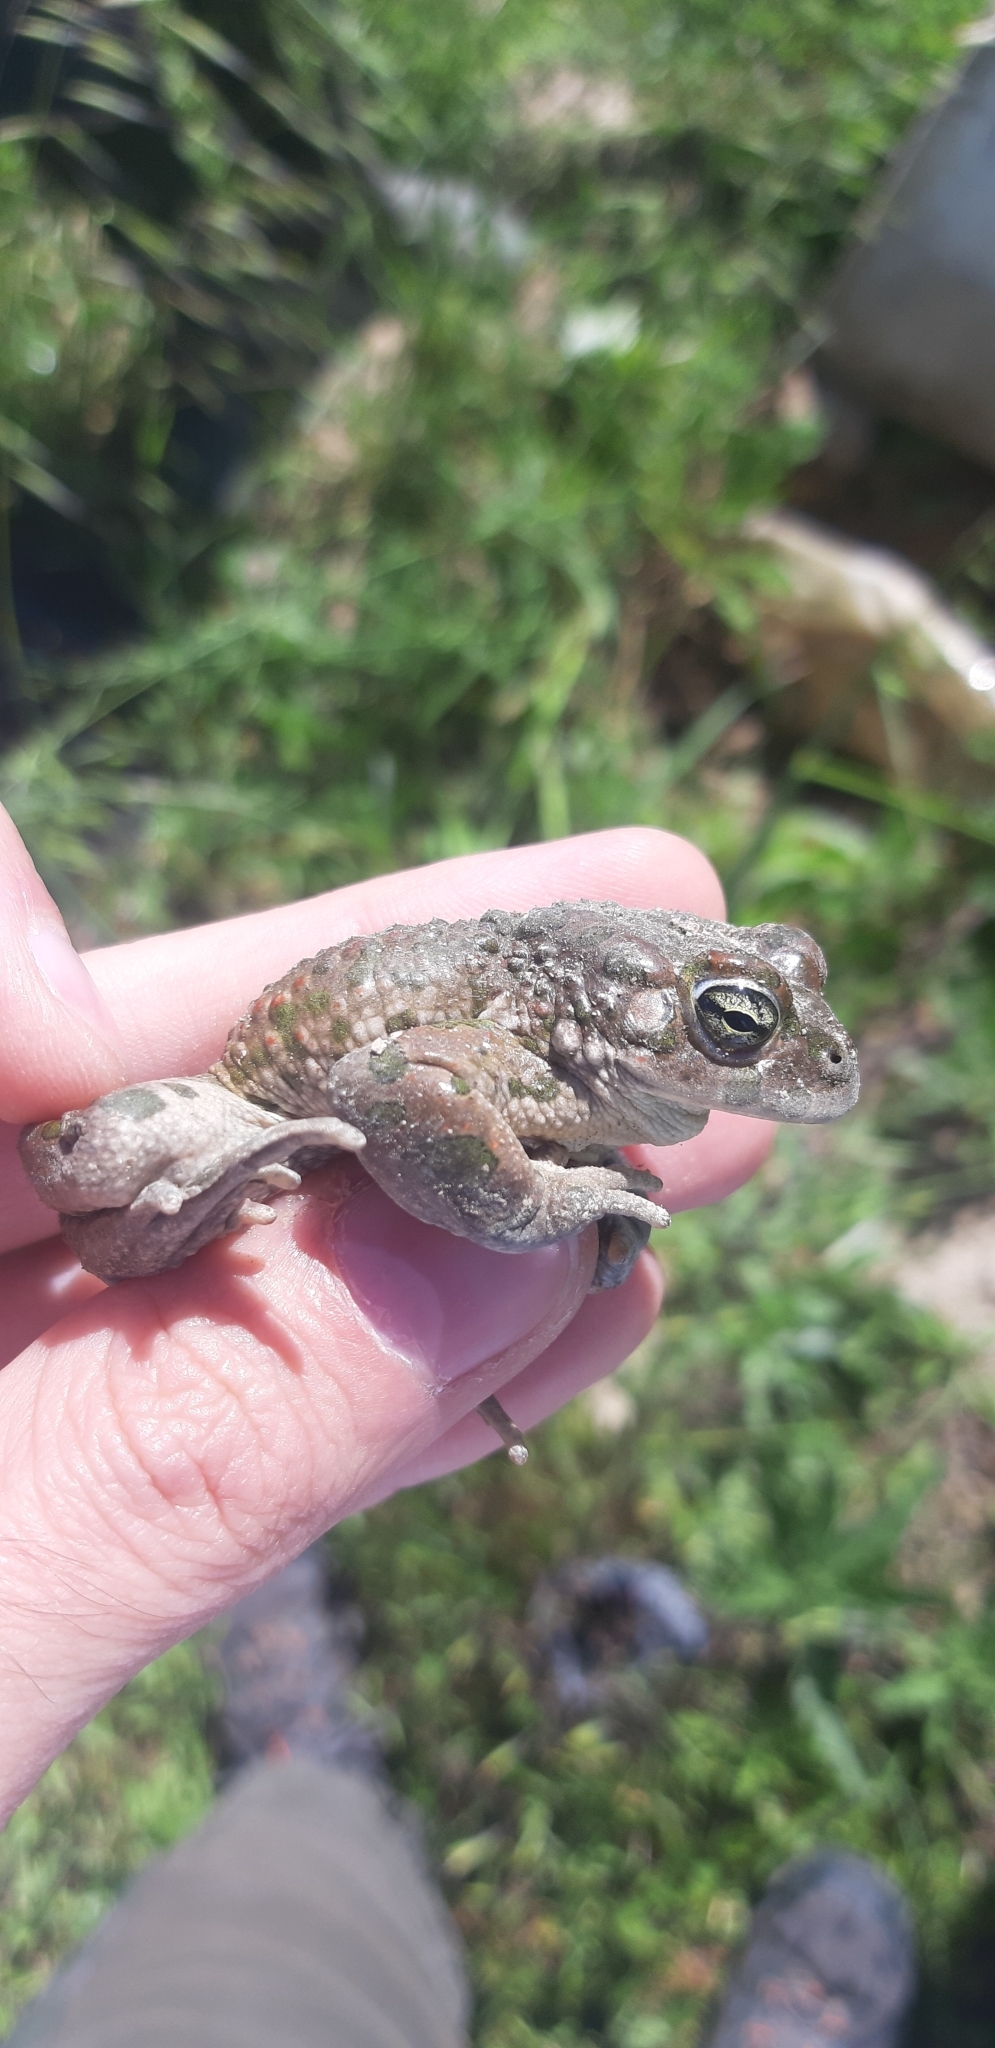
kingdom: Animalia
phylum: Chordata
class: Amphibia
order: Anura
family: Bufonidae
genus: Bufotes
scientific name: Bufotes viridis
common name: European green toad
